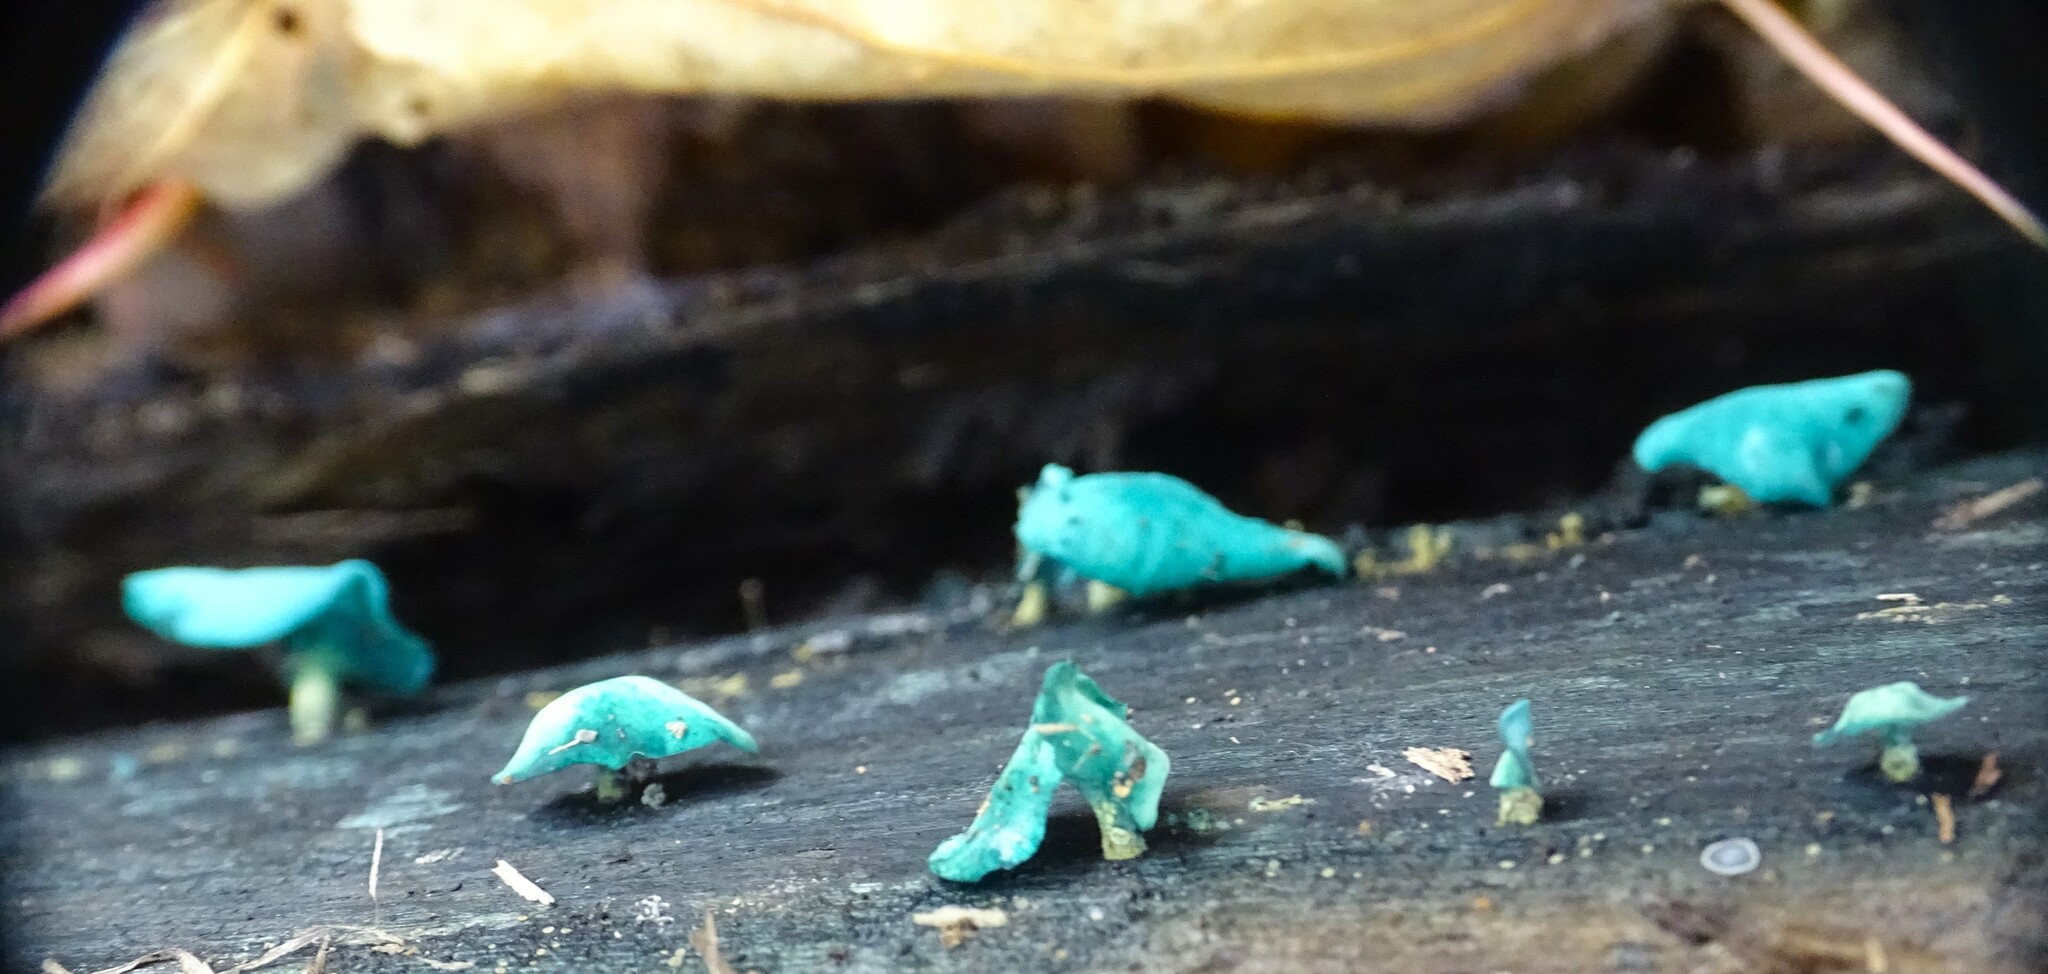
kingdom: Fungi
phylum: Ascomycota
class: Leotiomycetes
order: Helotiales
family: Chlorociboriaceae
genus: Chlorociboria
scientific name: Chlorociboria aeruginascens
